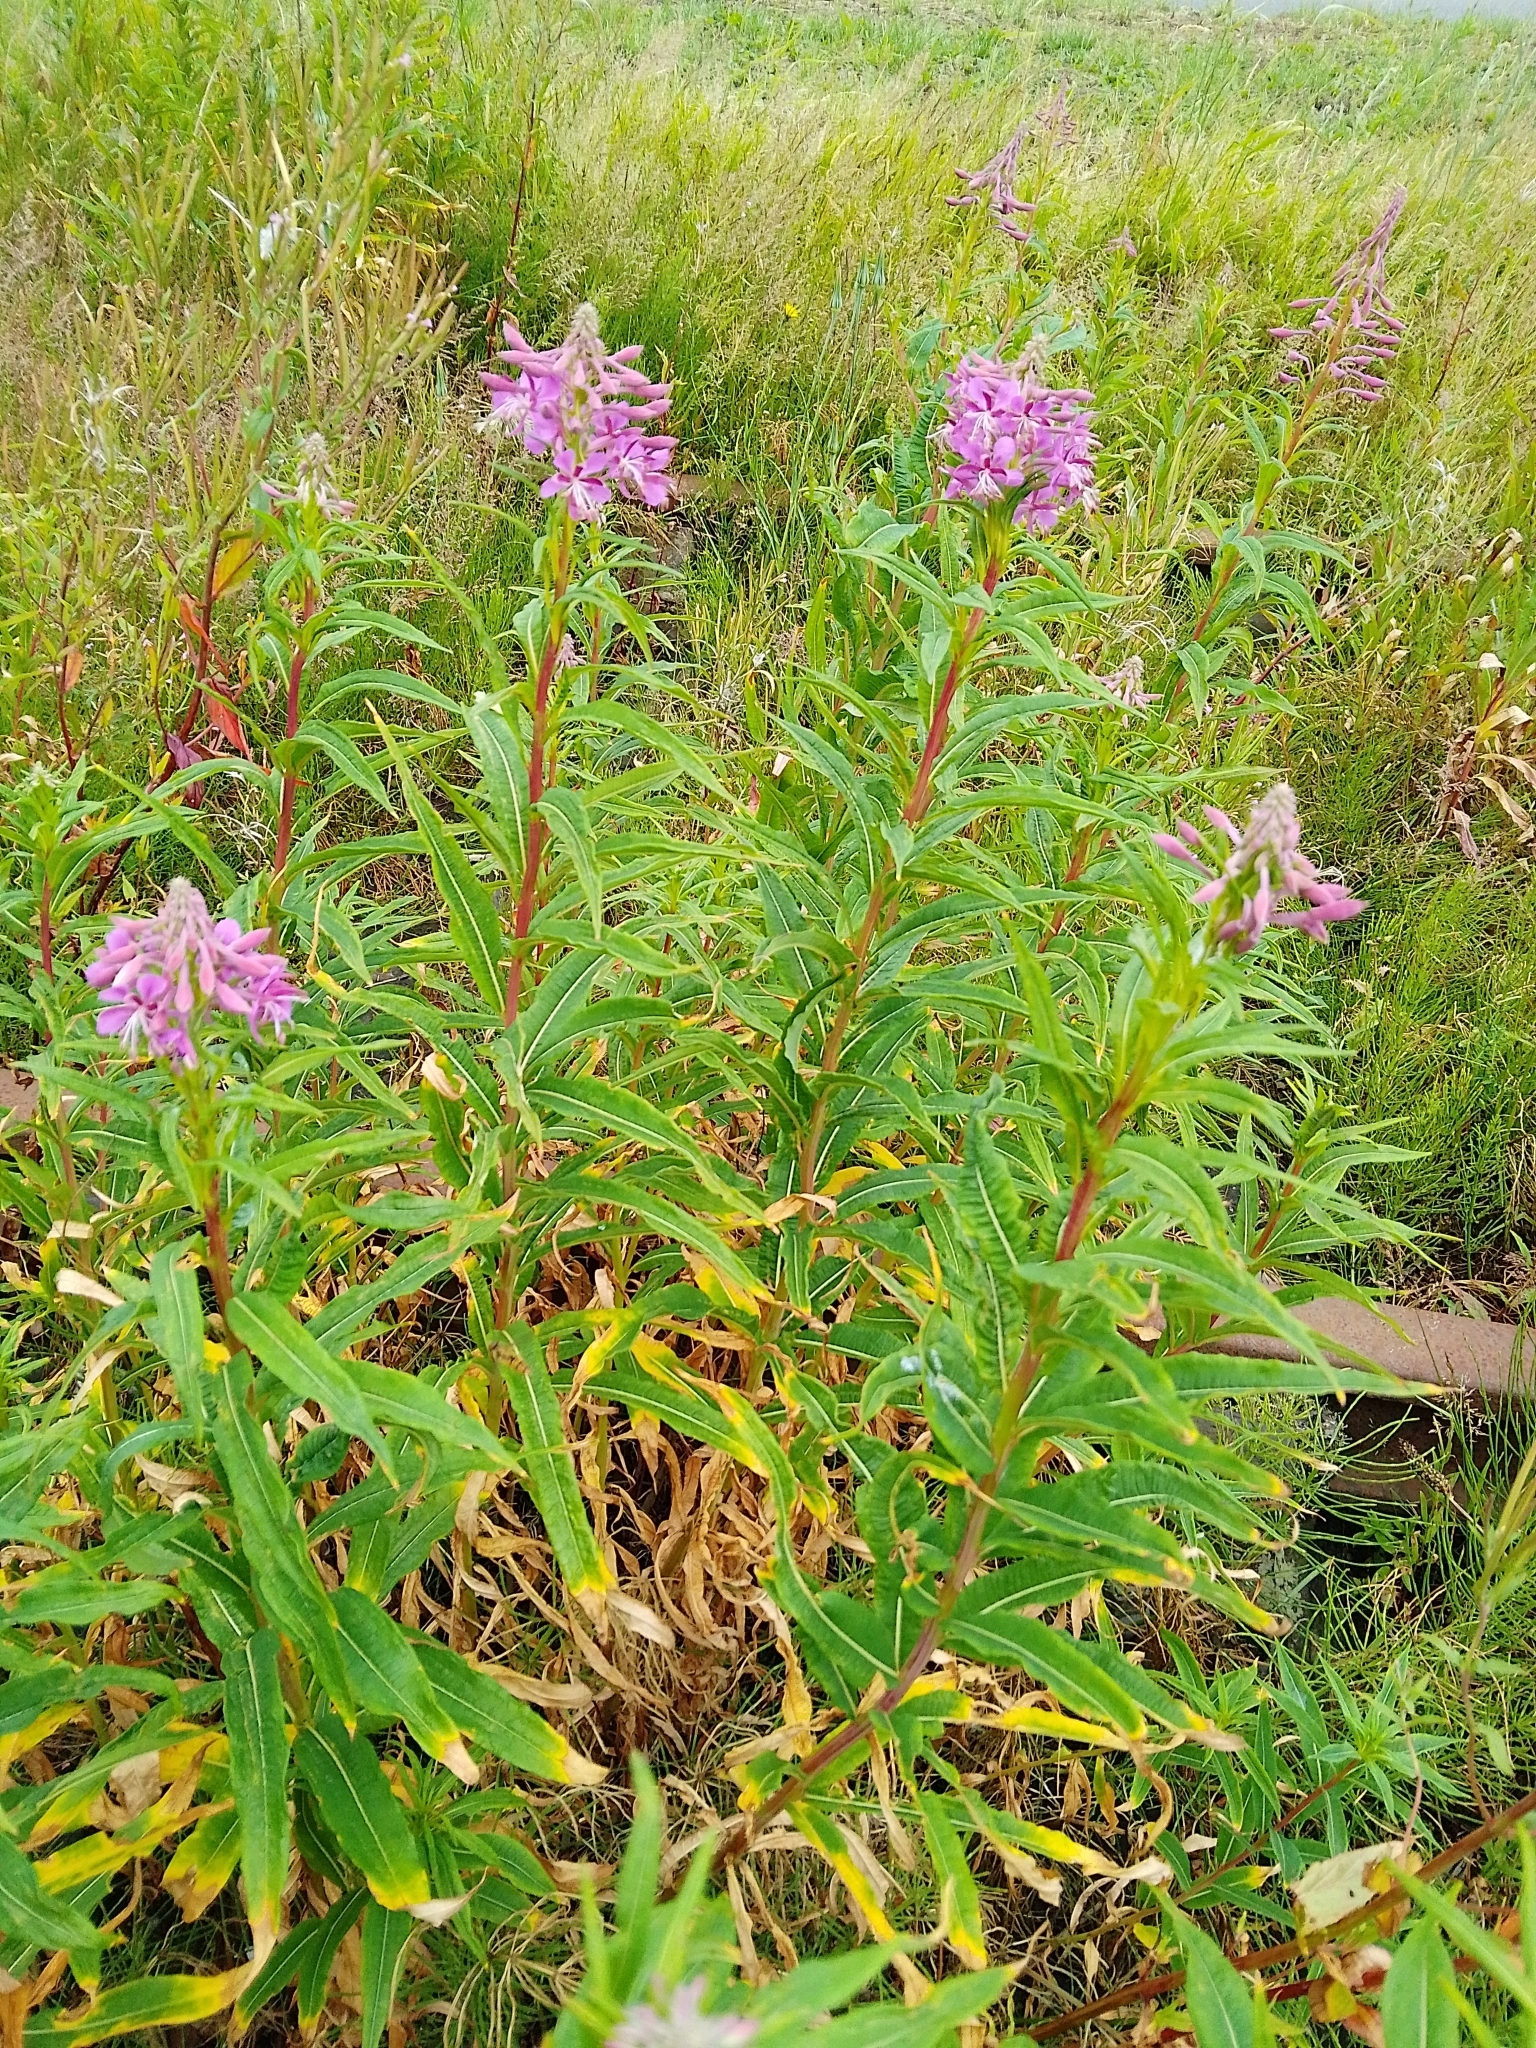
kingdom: Plantae
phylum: Tracheophyta
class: Magnoliopsida
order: Myrtales
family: Onagraceae
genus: Chamaenerion
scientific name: Chamaenerion angustifolium
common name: Fireweed
